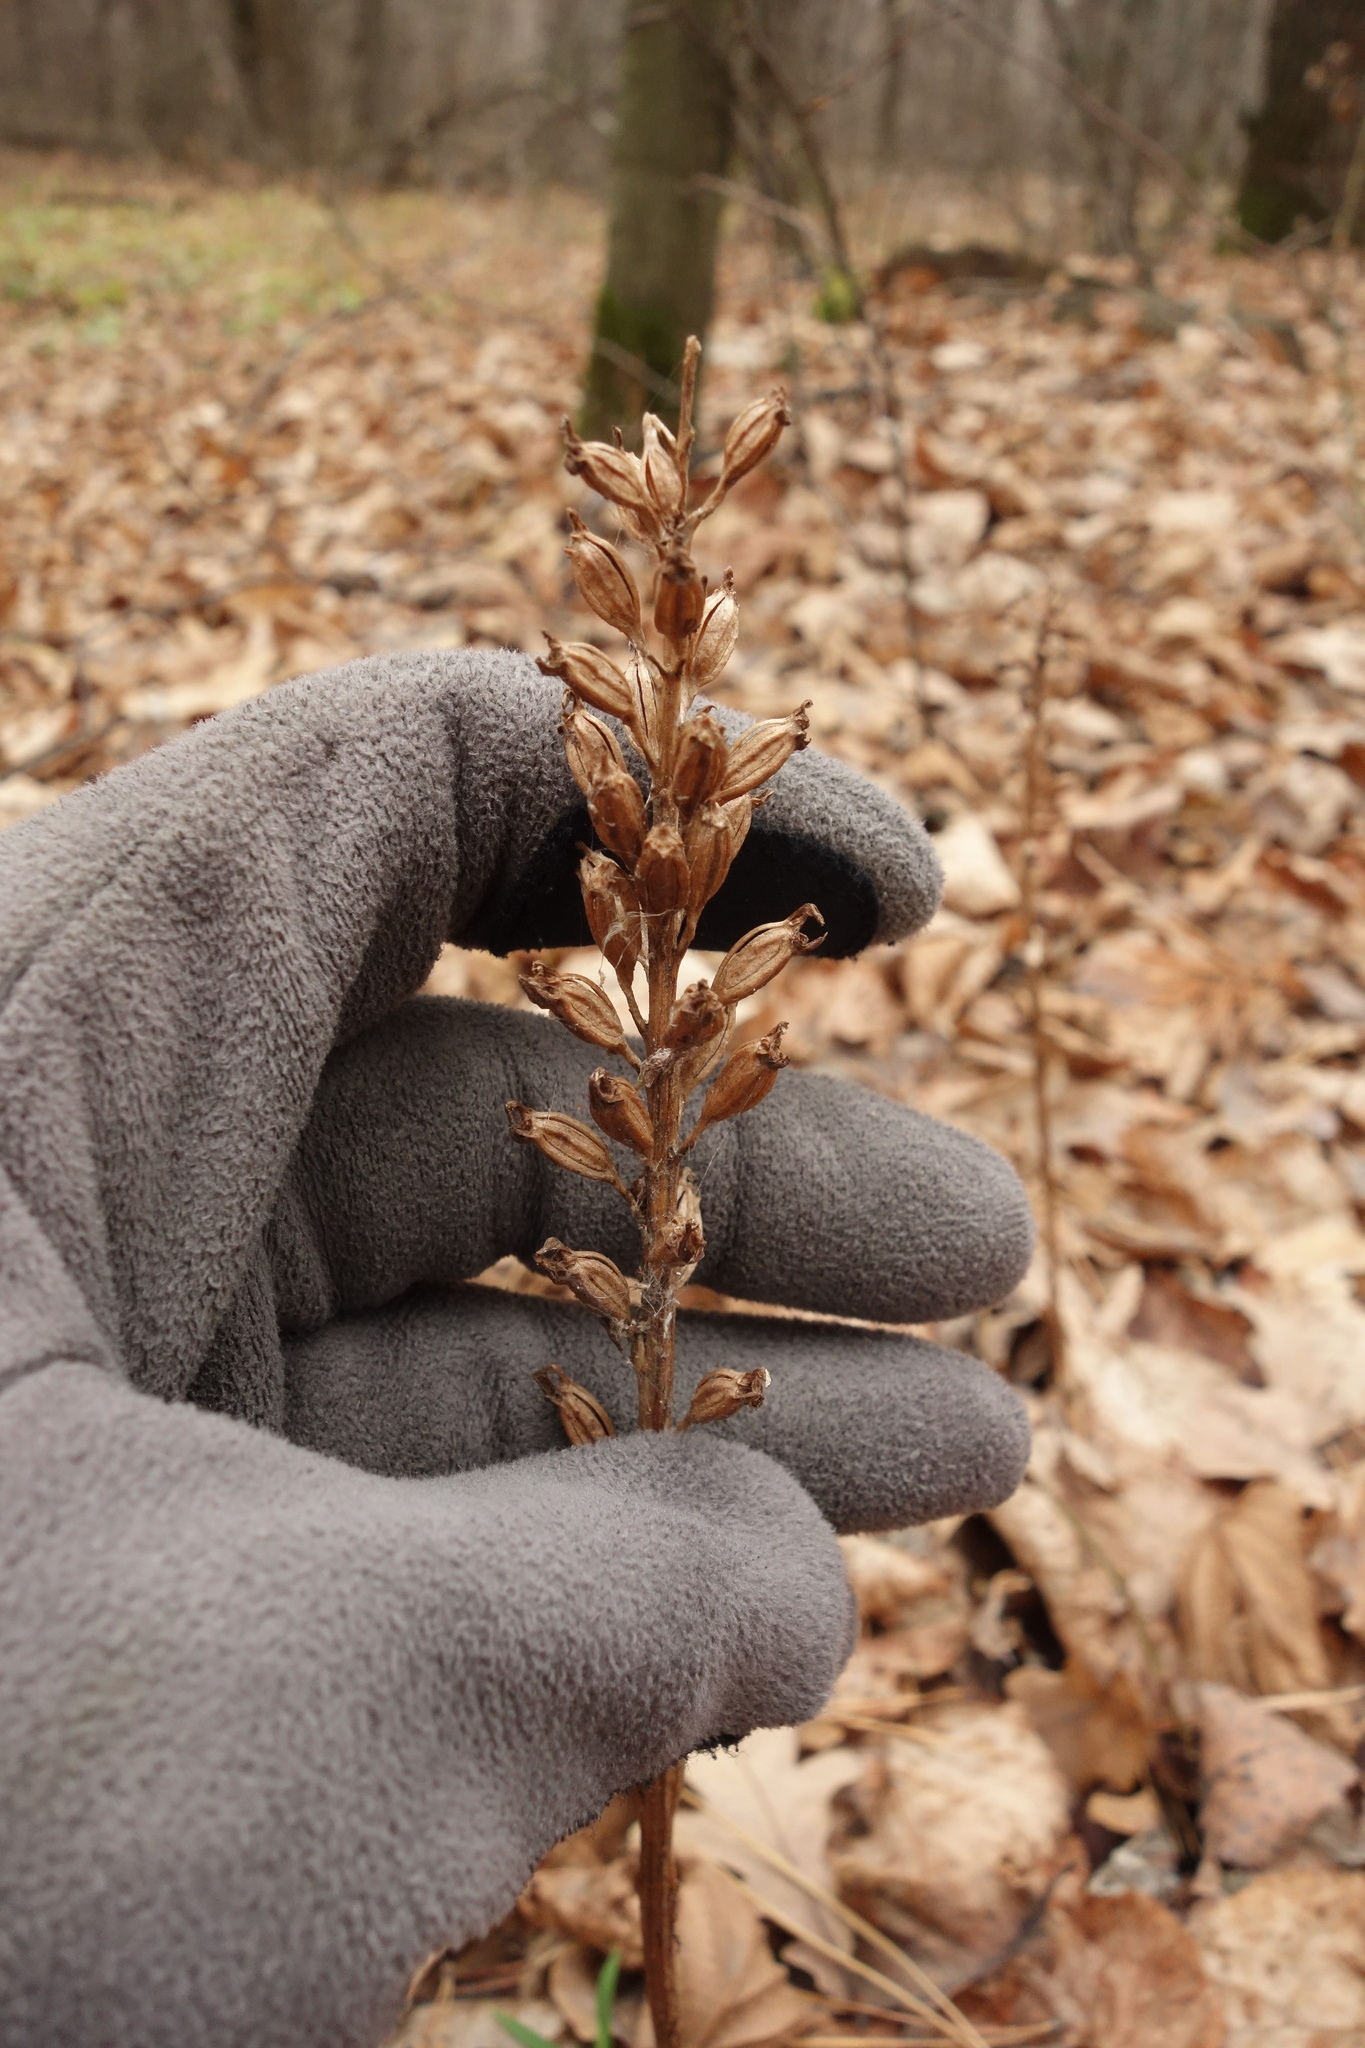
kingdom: Plantae
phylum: Tracheophyta
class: Liliopsida
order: Asparagales
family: Orchidaceae
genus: Neottia
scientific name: Neottia nidus-avis
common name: Bird's-nest orchid
